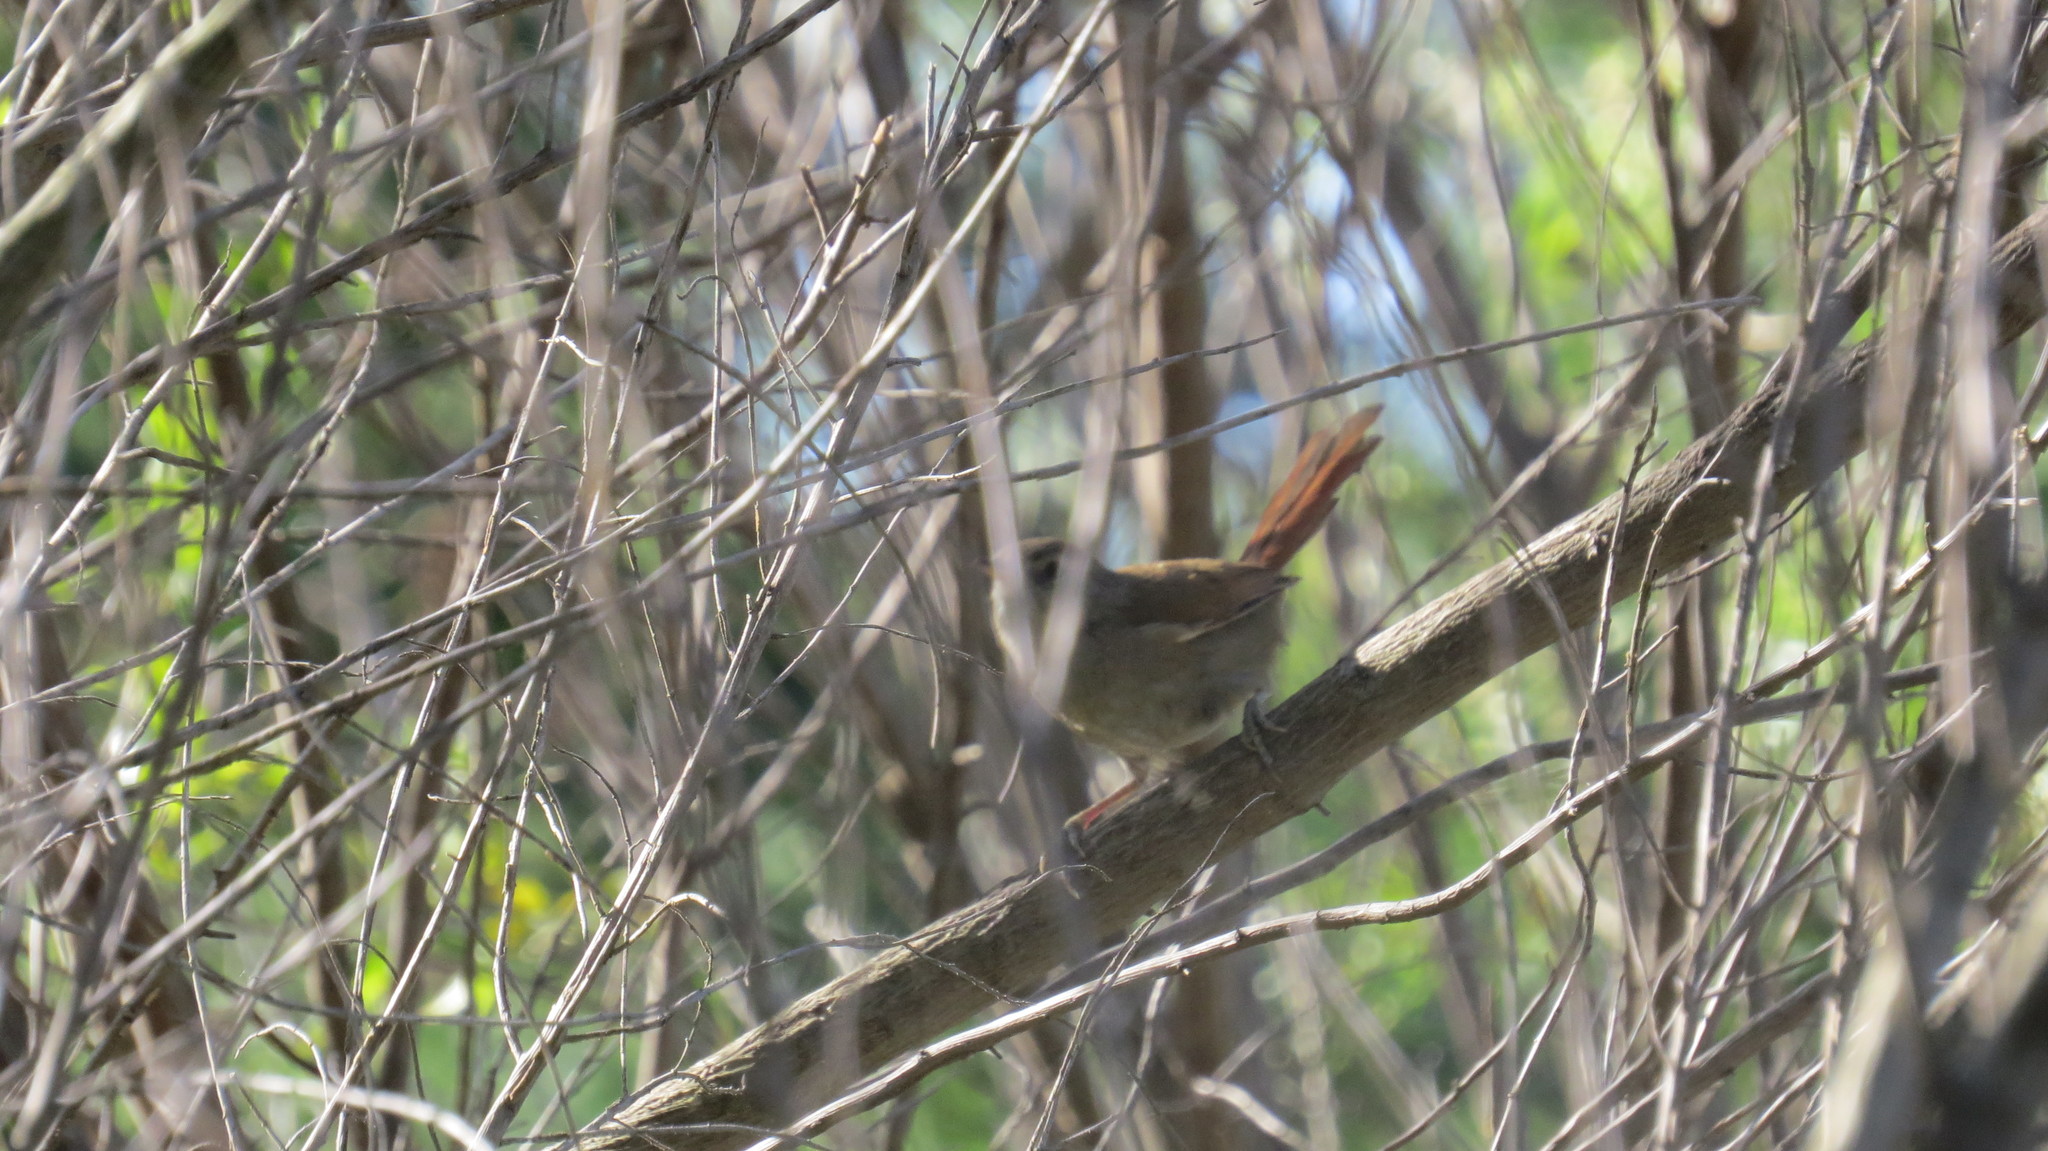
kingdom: Animalia
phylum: Chordata
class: Aves
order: Passeriformes
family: Furnariidae
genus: Phacellodomus
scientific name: Phacellodomus sibilatrix
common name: Little thornbird
